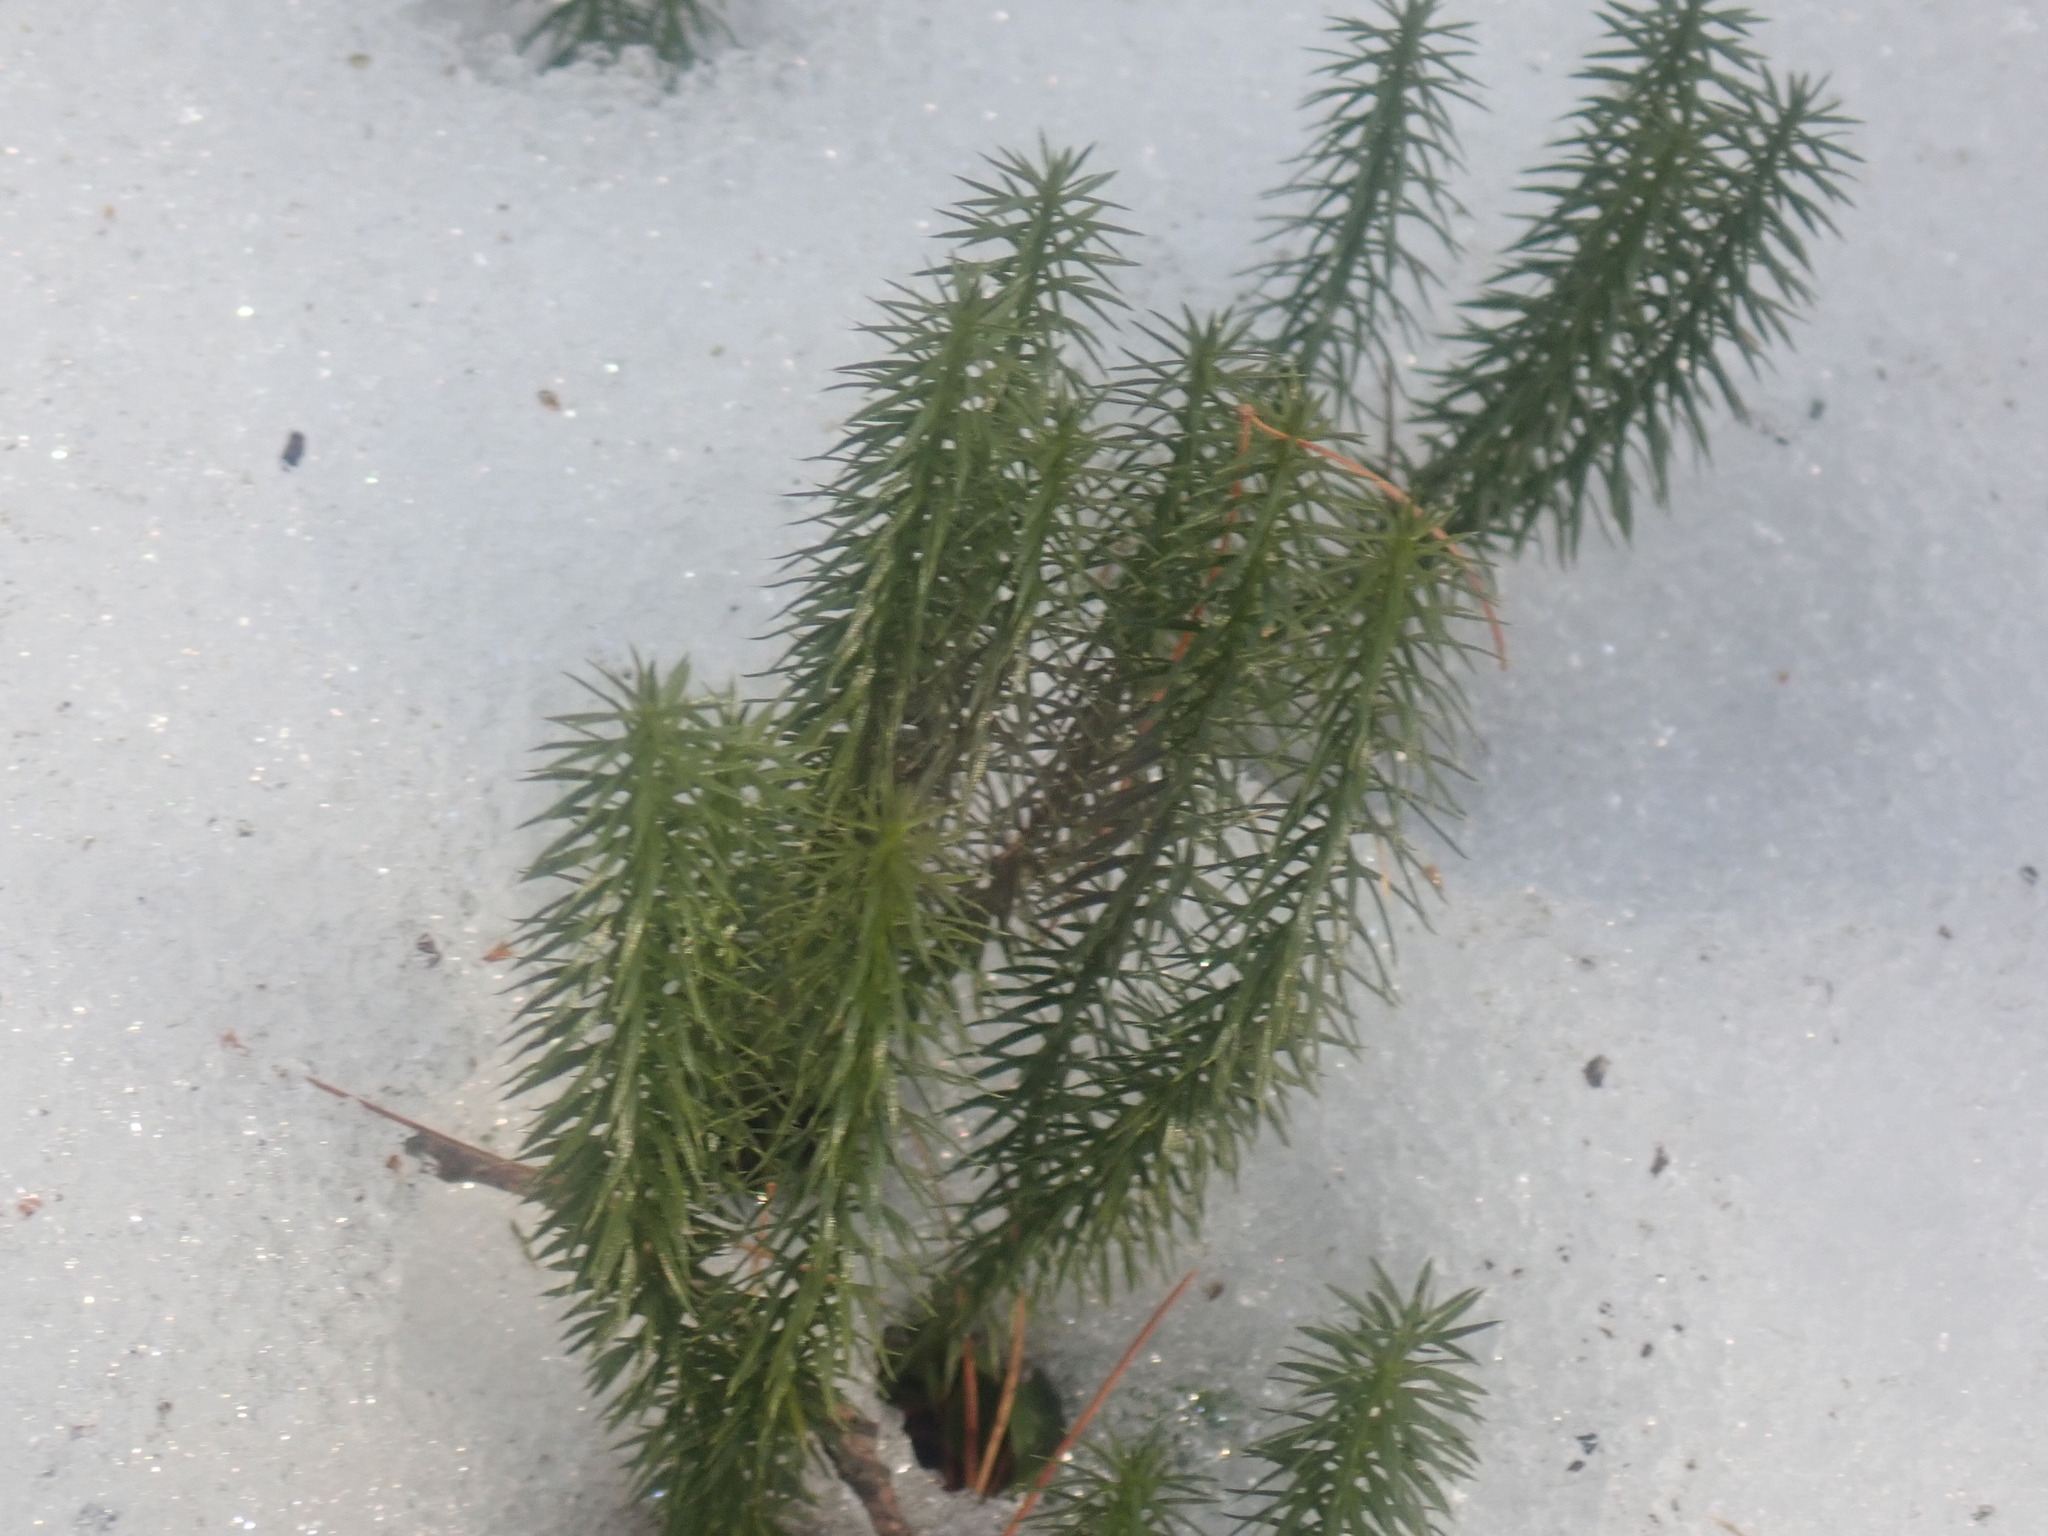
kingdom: Plantae
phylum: Tracheophyta
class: Lycopodiopsida
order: Lycopodiales
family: Lycopodiaceae
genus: Spinulum
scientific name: Spinulum annotinum
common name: Interrupted club-moss
